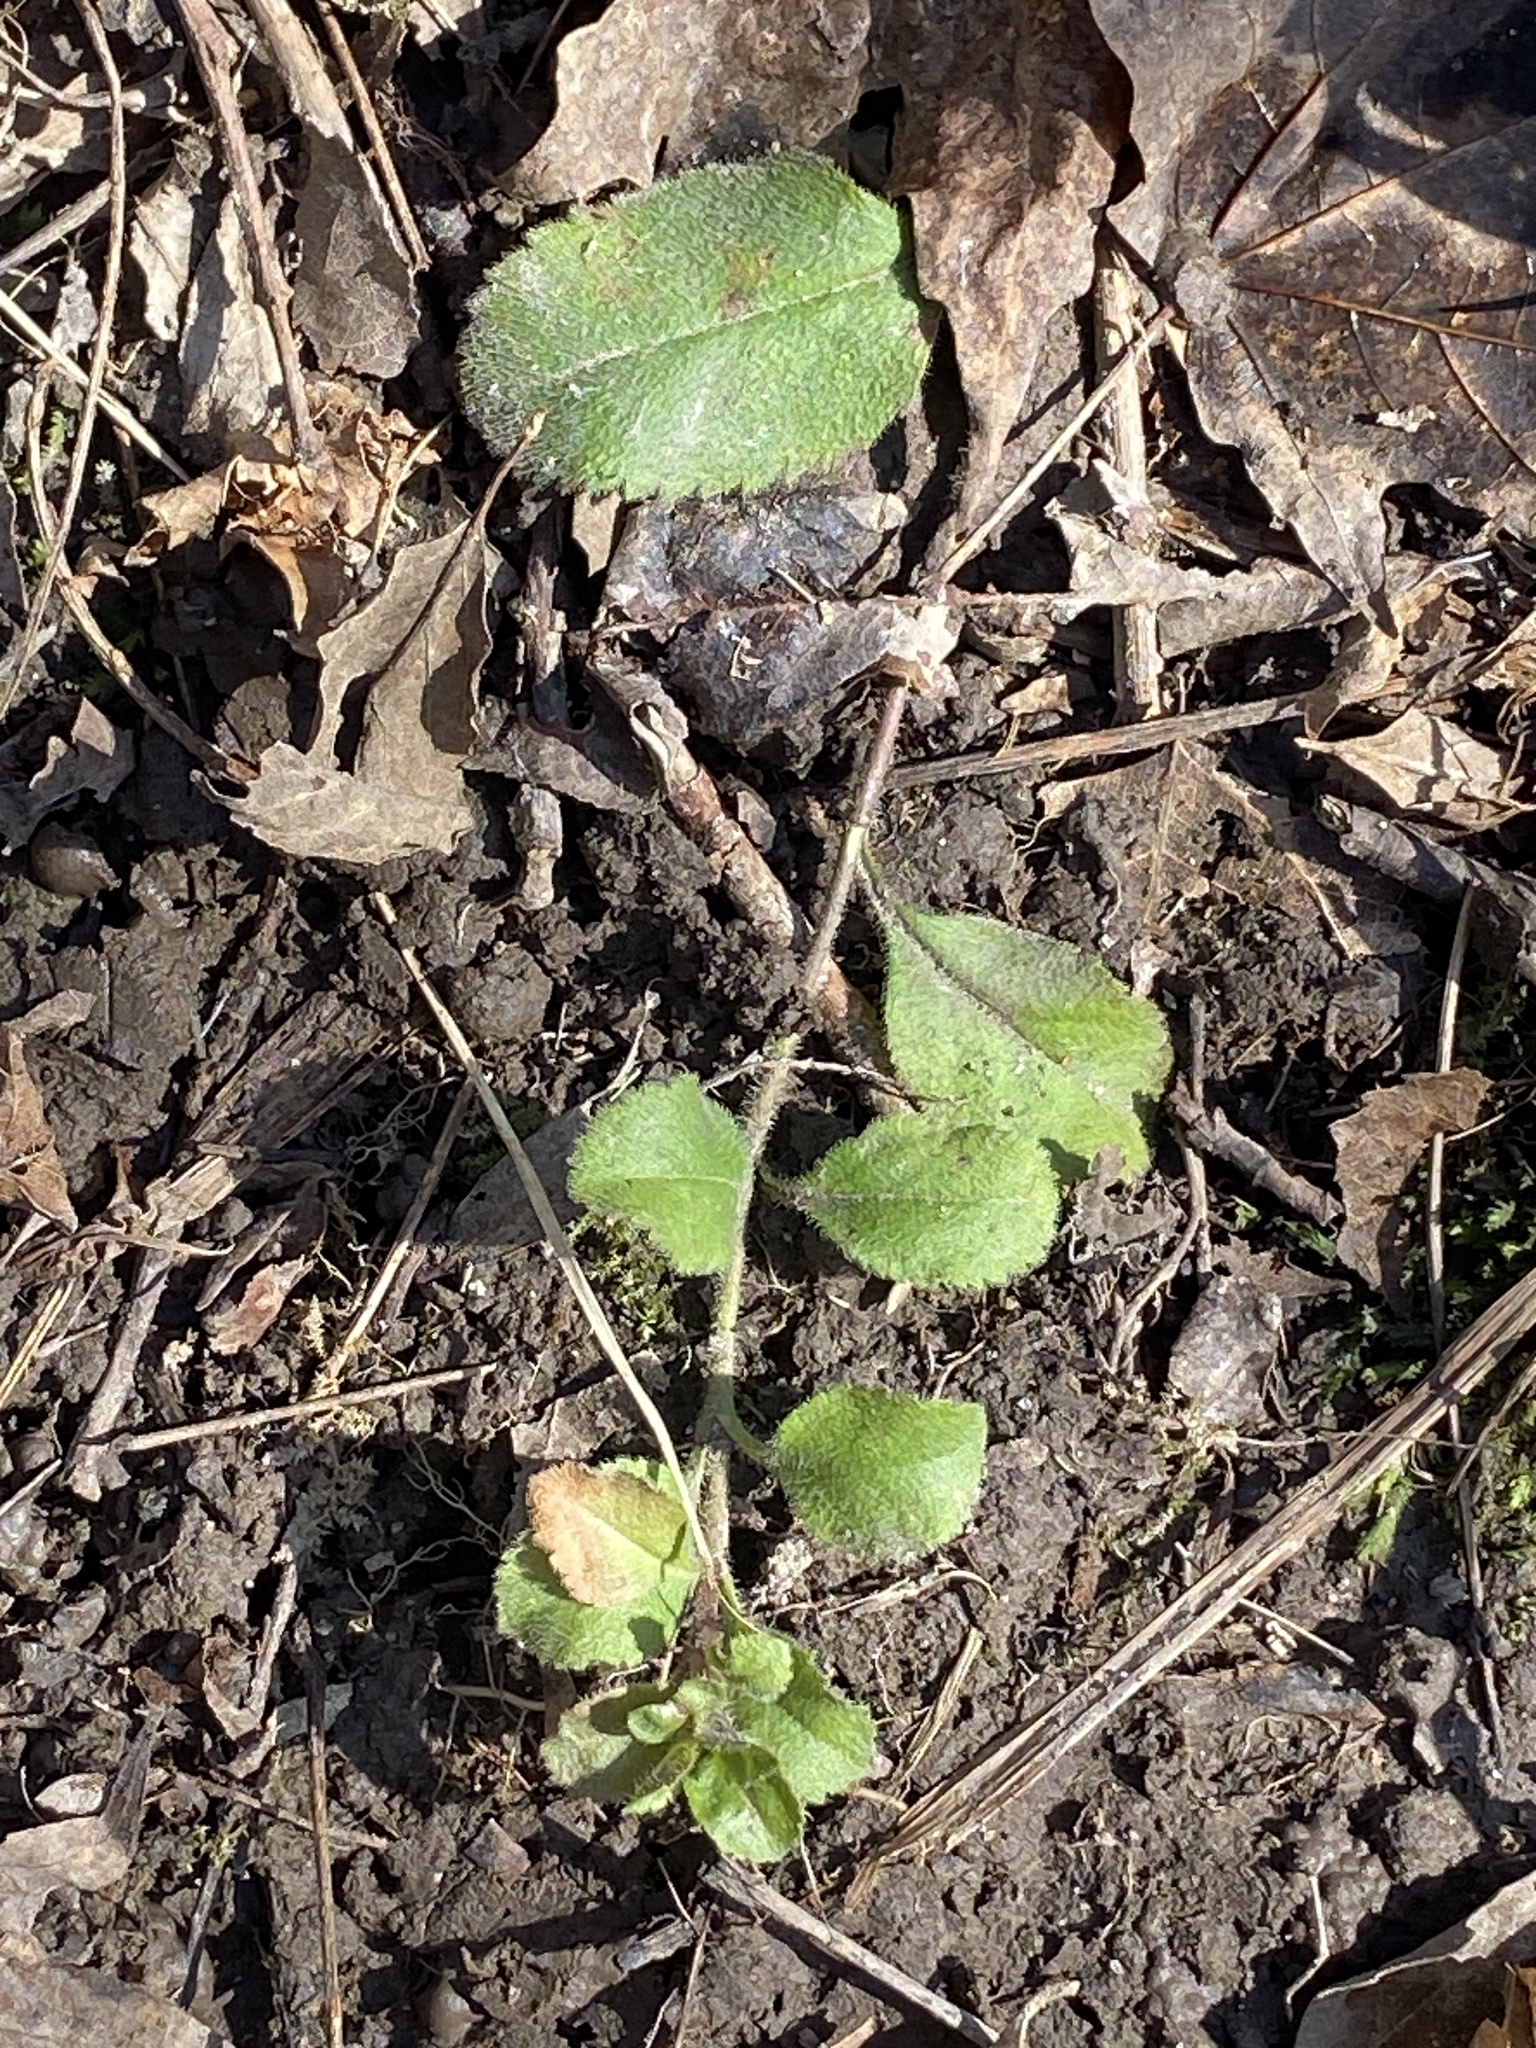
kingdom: Plantae
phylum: Tracheophyta
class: Magnoliopsida
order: Lamiales
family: Plantaginaceae
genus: Veronica
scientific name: Veronica officinalis
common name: Common speedwell
